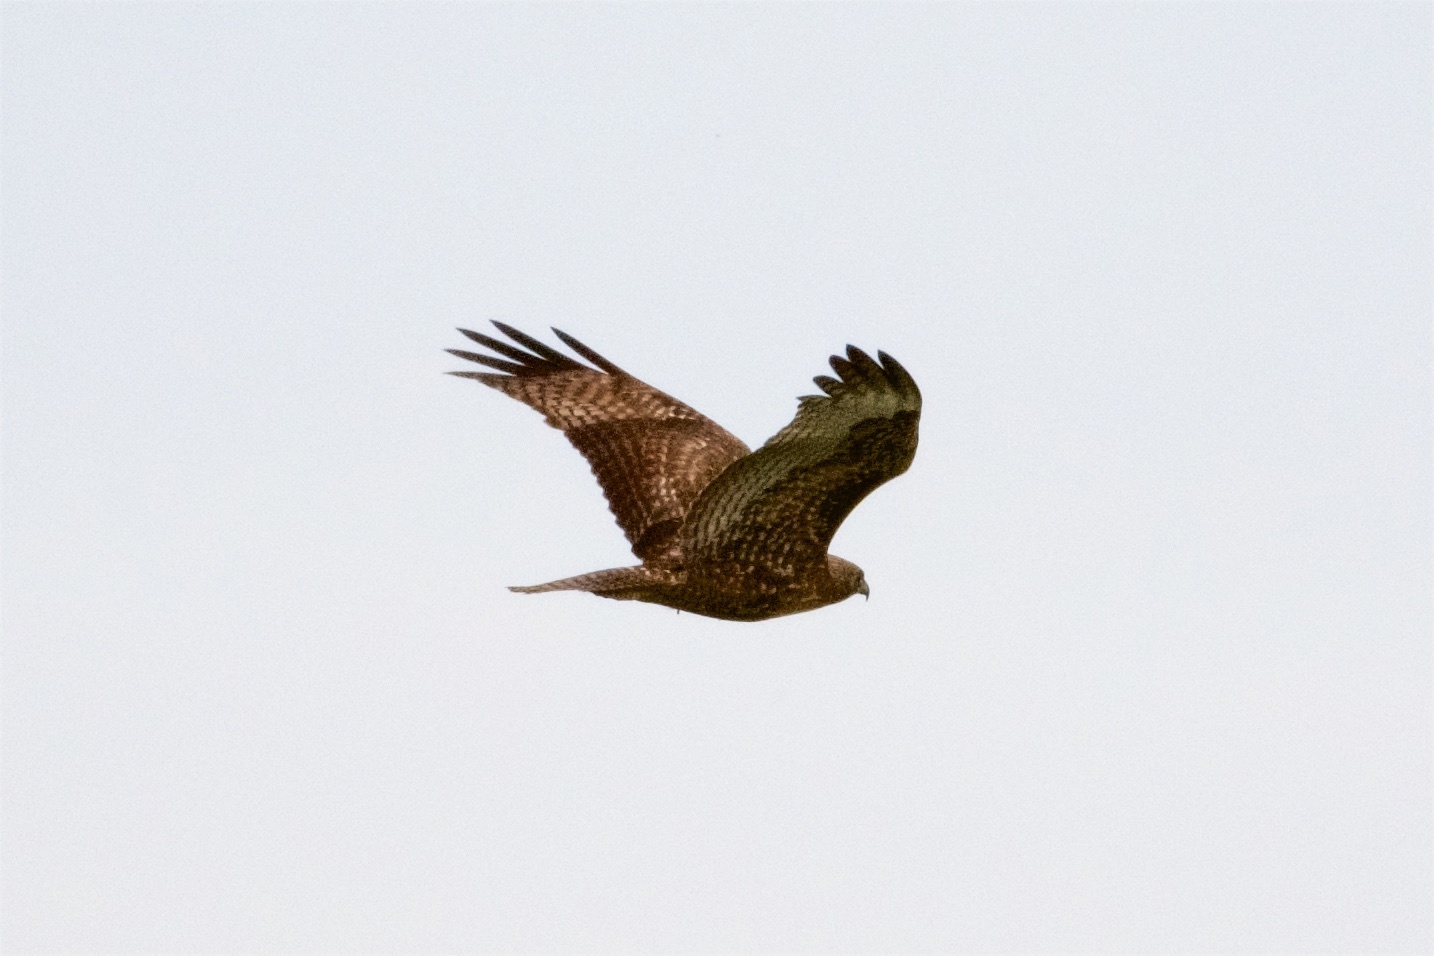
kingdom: Animalia
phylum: Chordata
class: Aves
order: Accipitriformes
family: Accipitridae
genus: Buteo
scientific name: Buteo jamaicensis
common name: Red-tailed hawk
